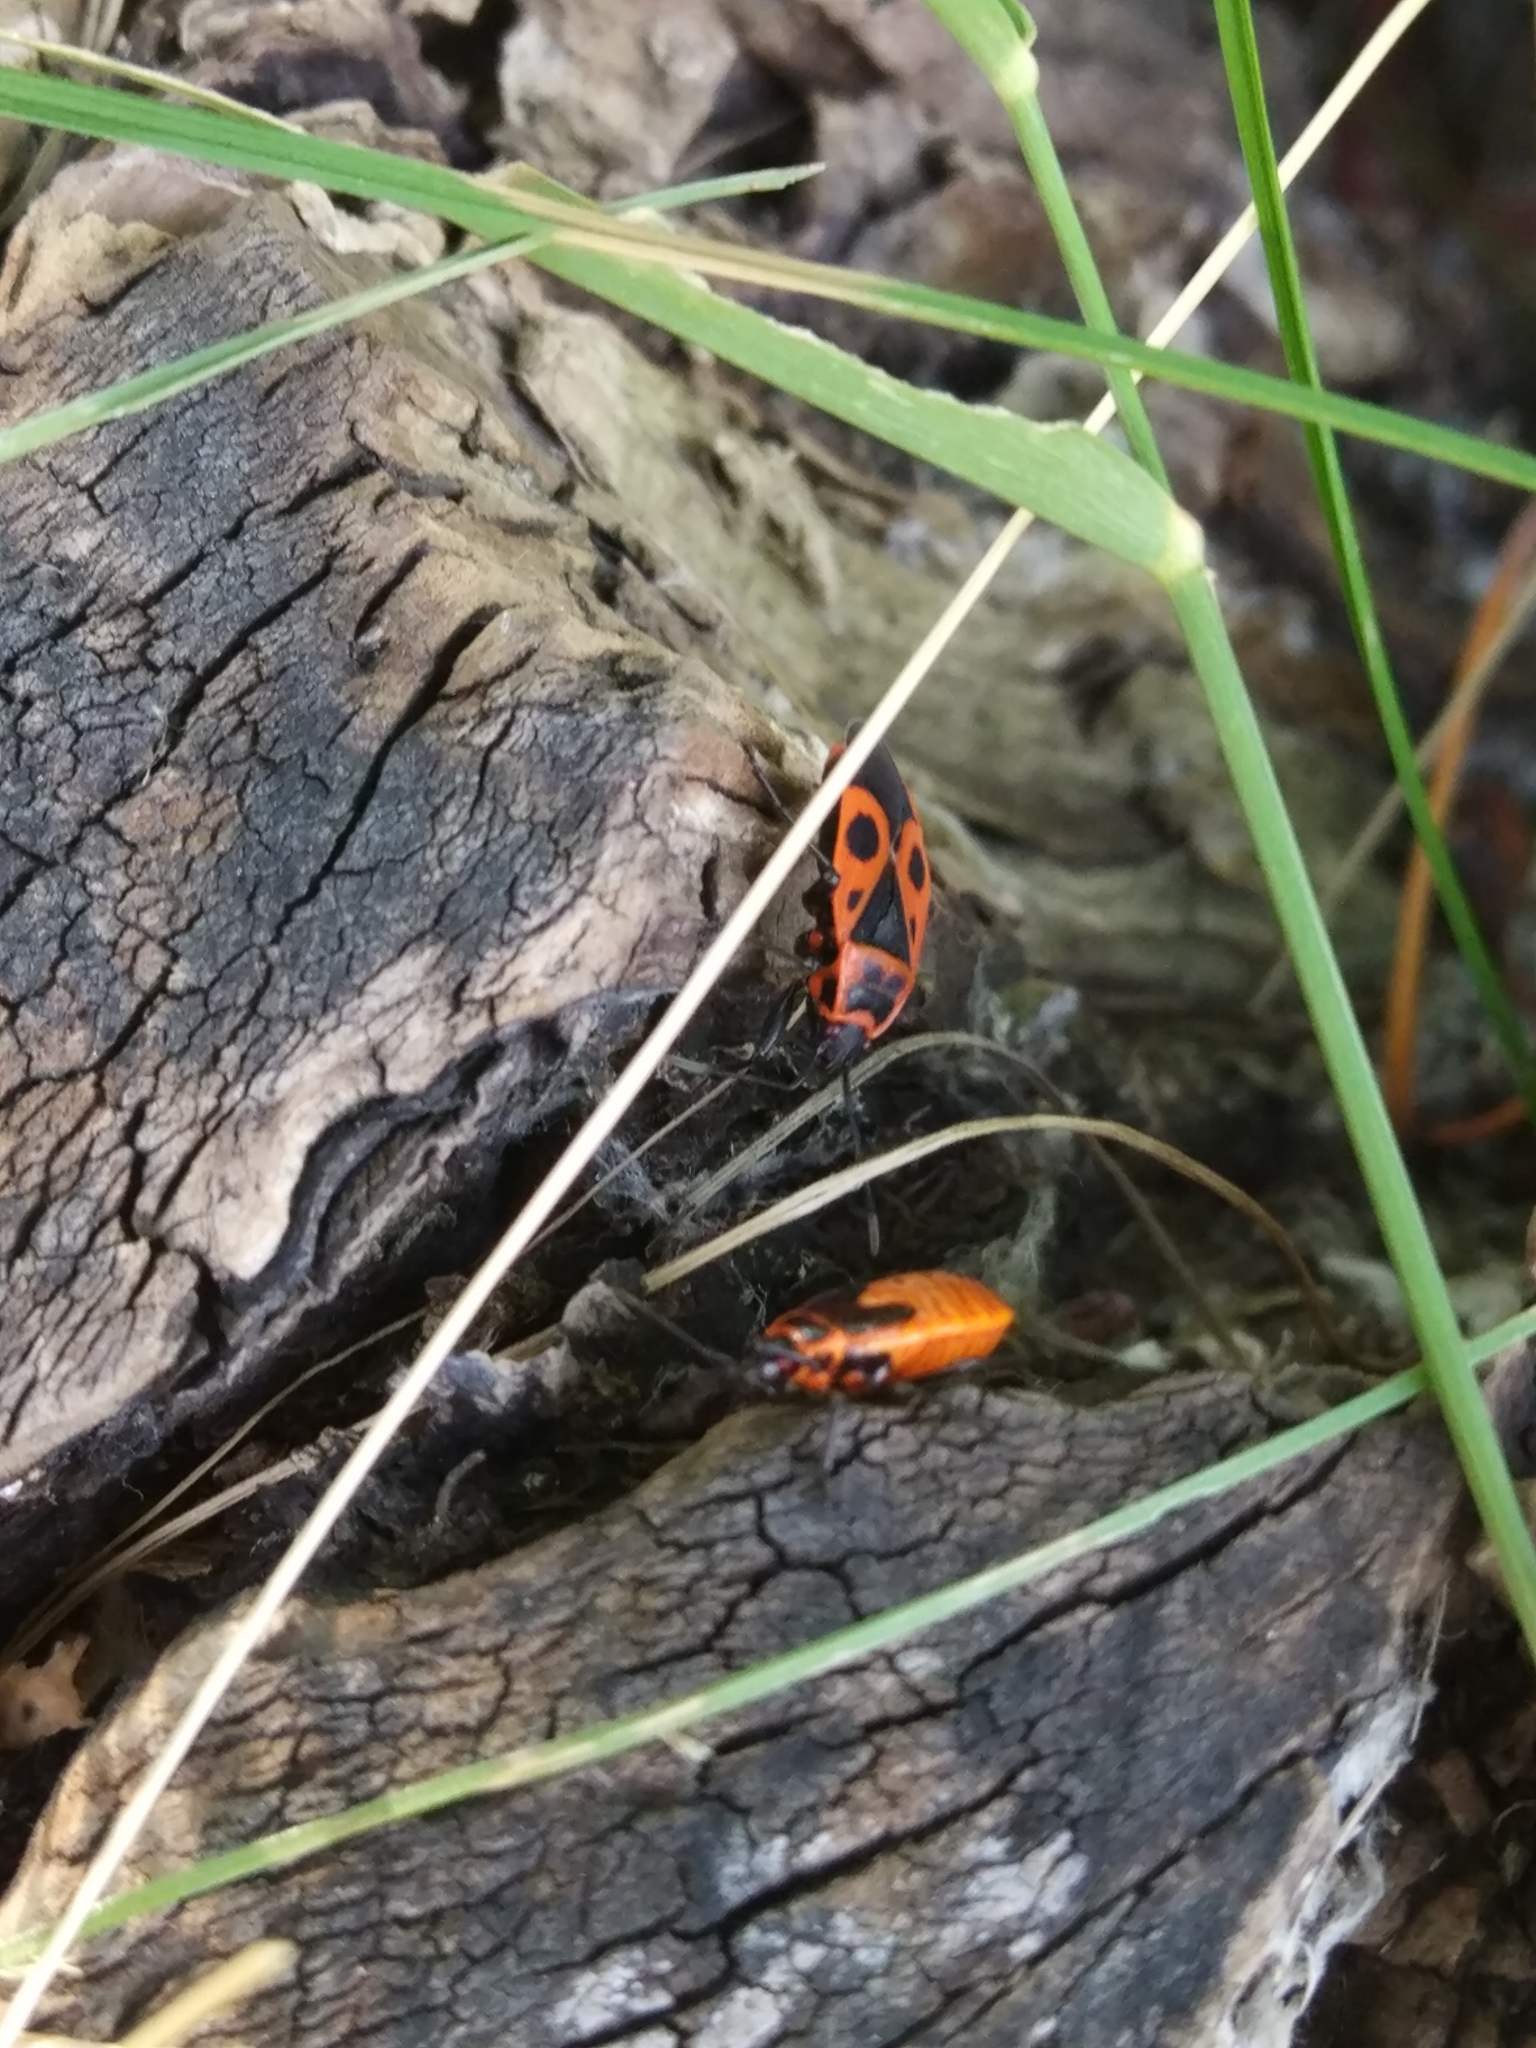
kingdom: Animalia
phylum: Arthropoda
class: Insecta
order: Hemiptera
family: Pyrrhocoridae
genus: Pyrrhocoris
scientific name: Pyrrhocoris apterus
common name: Firebug
